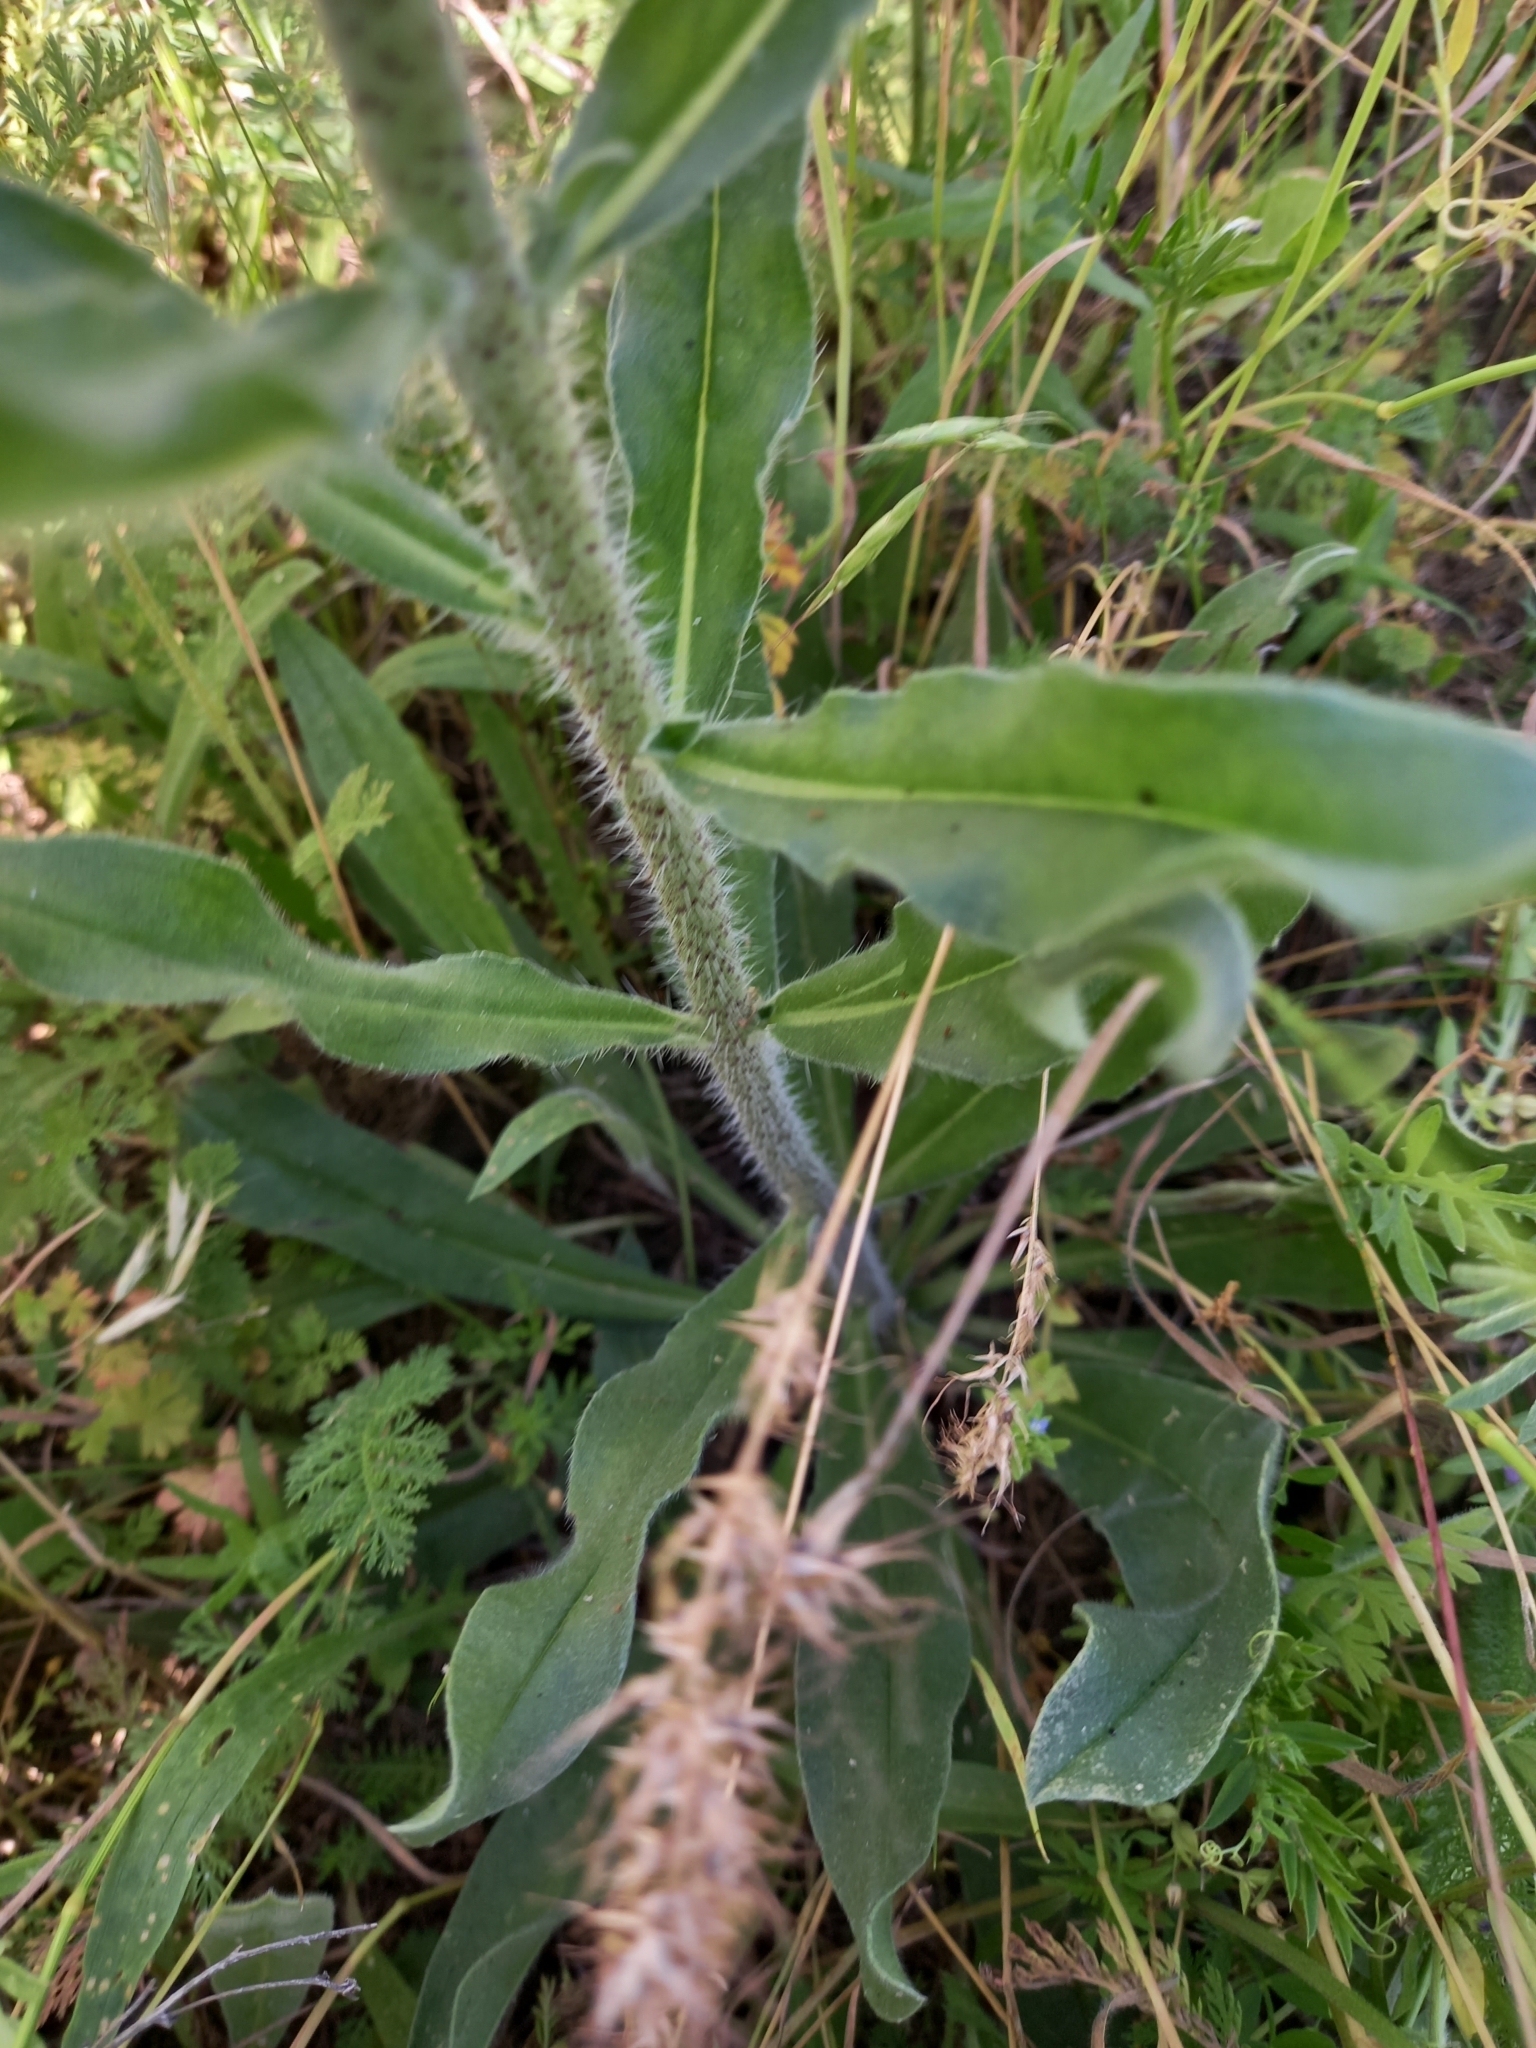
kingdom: Plantae
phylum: Tracheophyta
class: Magnoliopsida
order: Boraginales
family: Boraginaceae
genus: Echium
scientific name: Echium vulgare
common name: Common viper's bugloss
